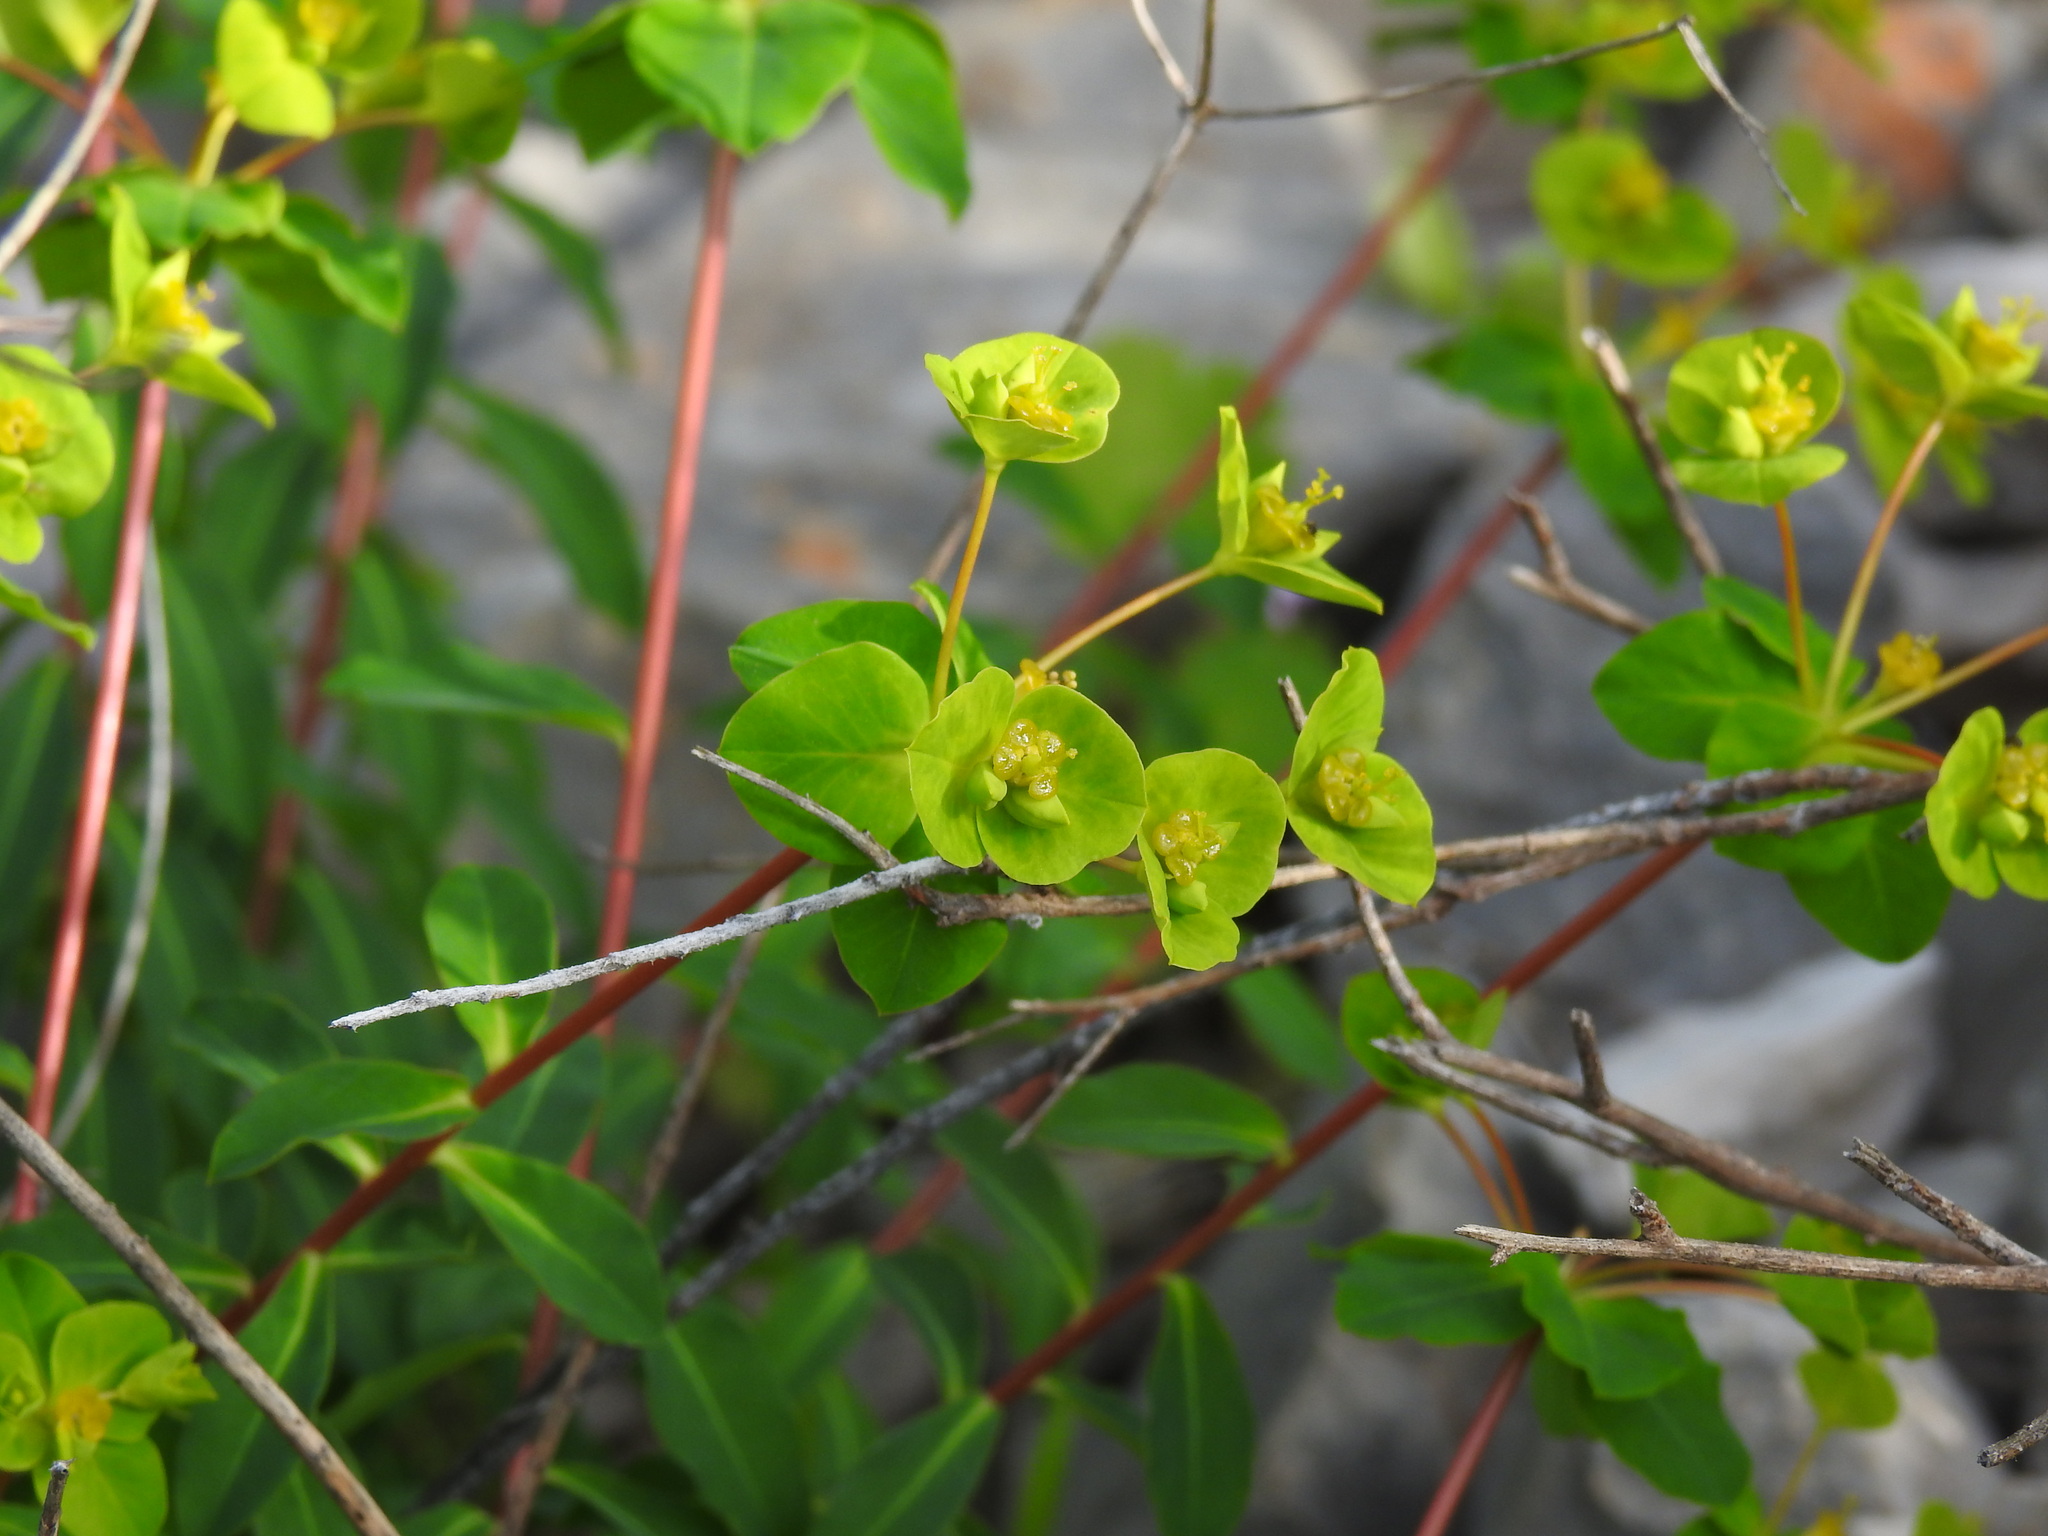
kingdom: Plantae
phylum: Tracheophyta
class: Magnoliopsida
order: Malpighiales
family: Euphorbiaceae
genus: Euphorbia
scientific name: Euphorbia clementei
